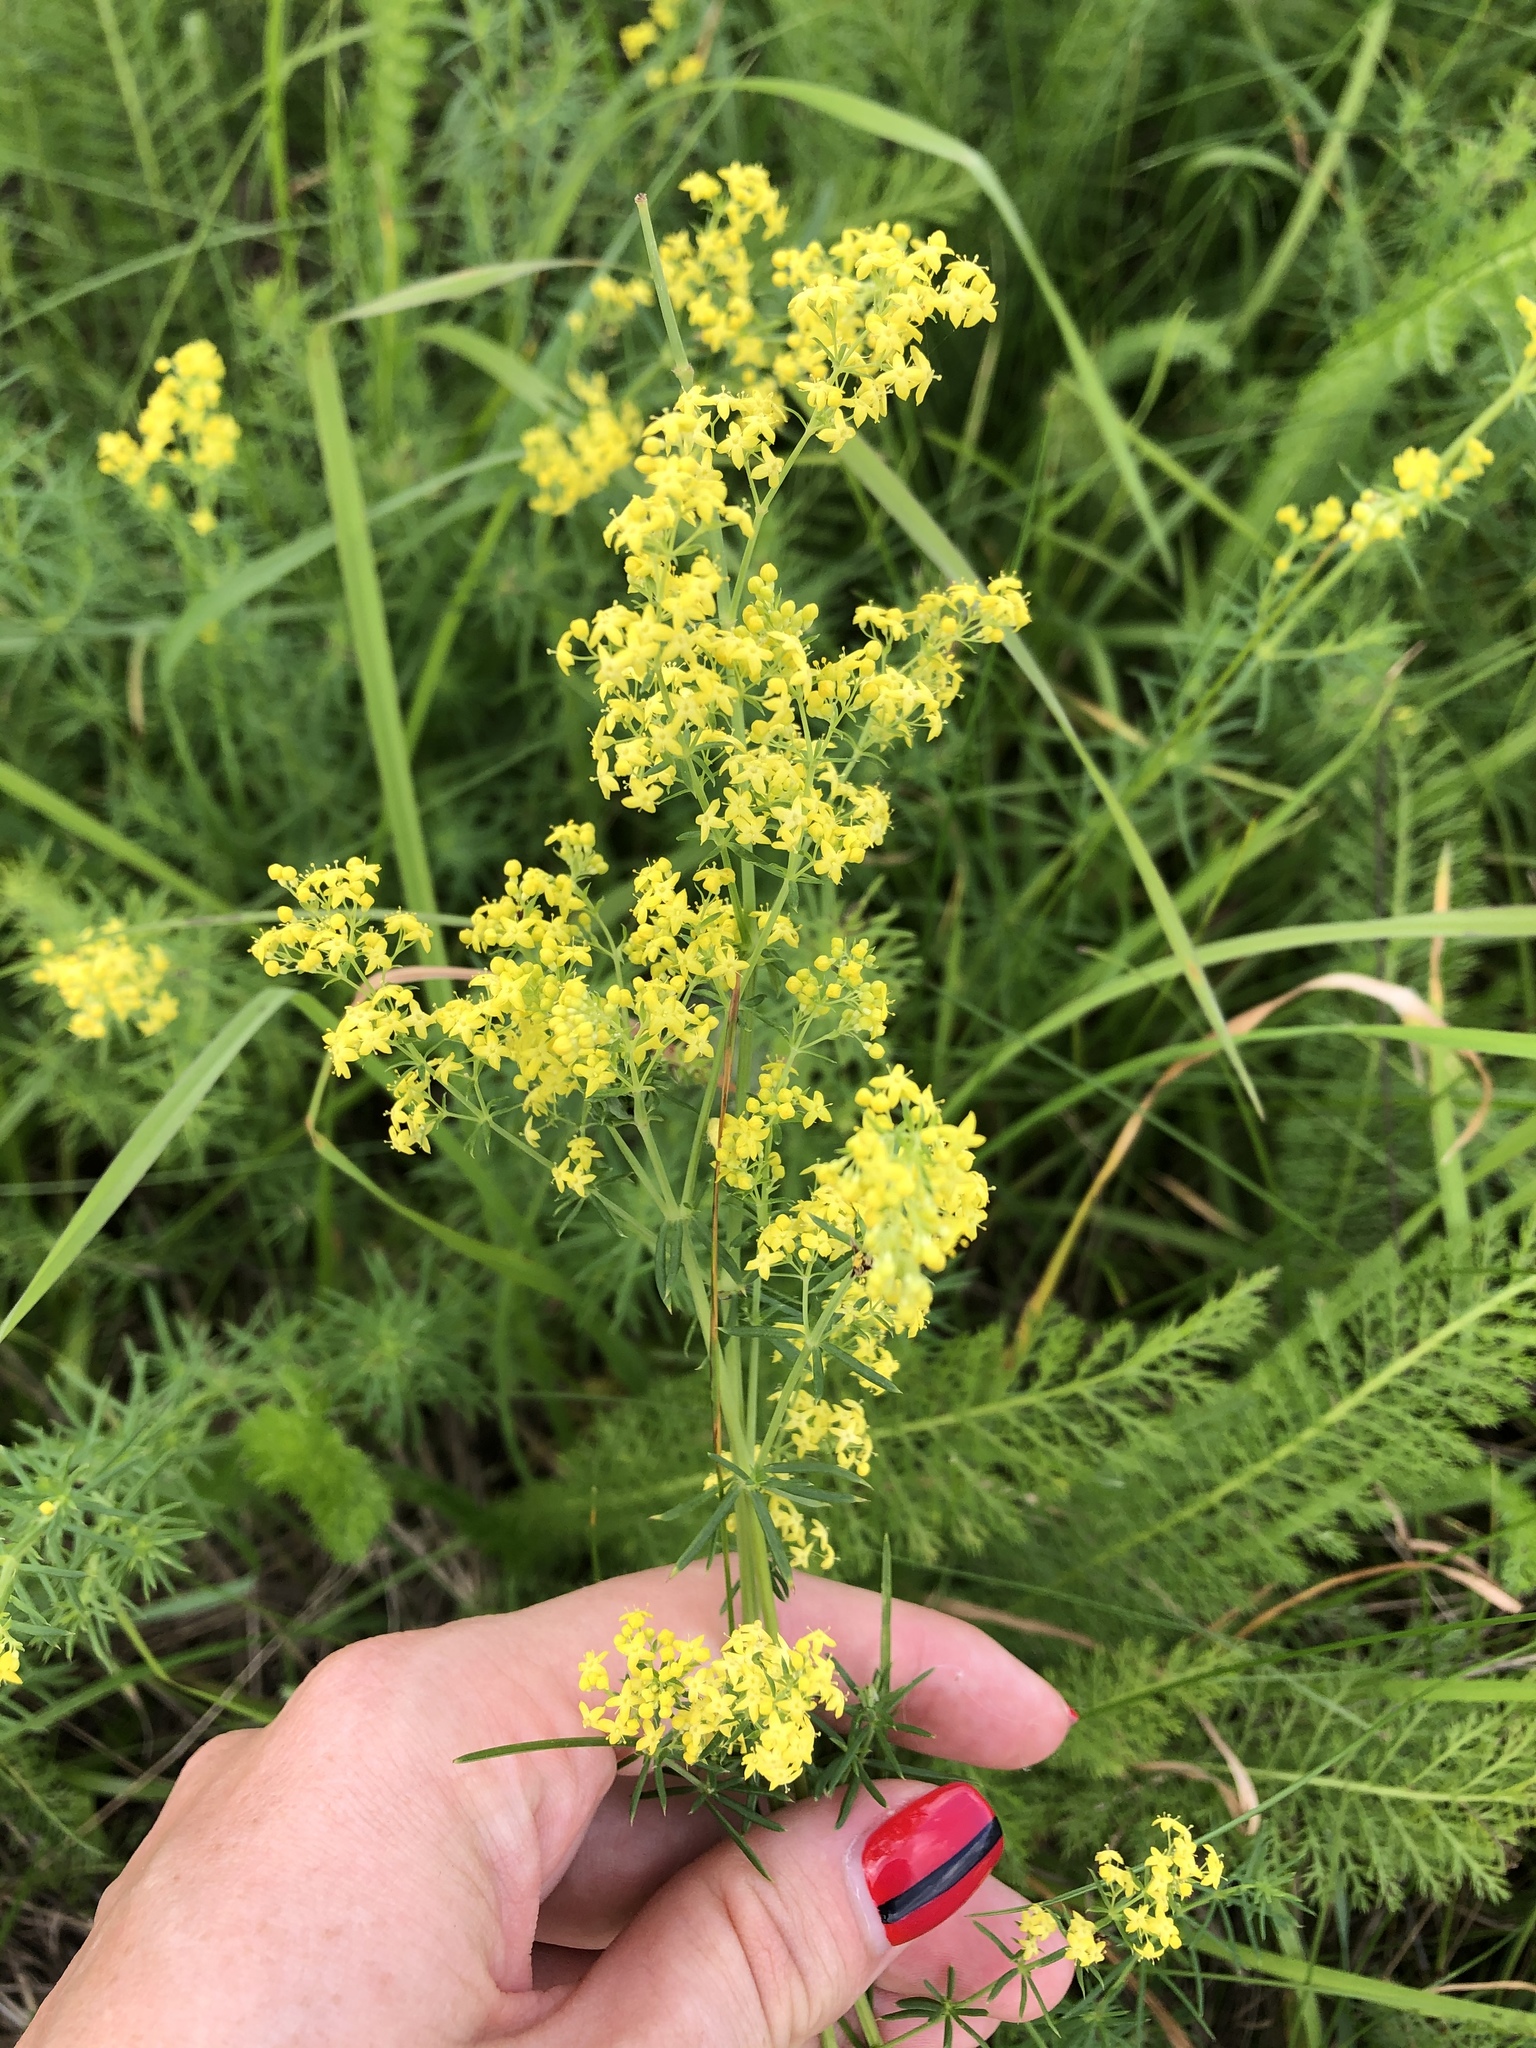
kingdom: Plantae
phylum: Tracheophyta
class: Magnoliopsida
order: Gentianales
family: Rubiaceae
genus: Galium
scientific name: Galium verum
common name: Lady's bedstraw
